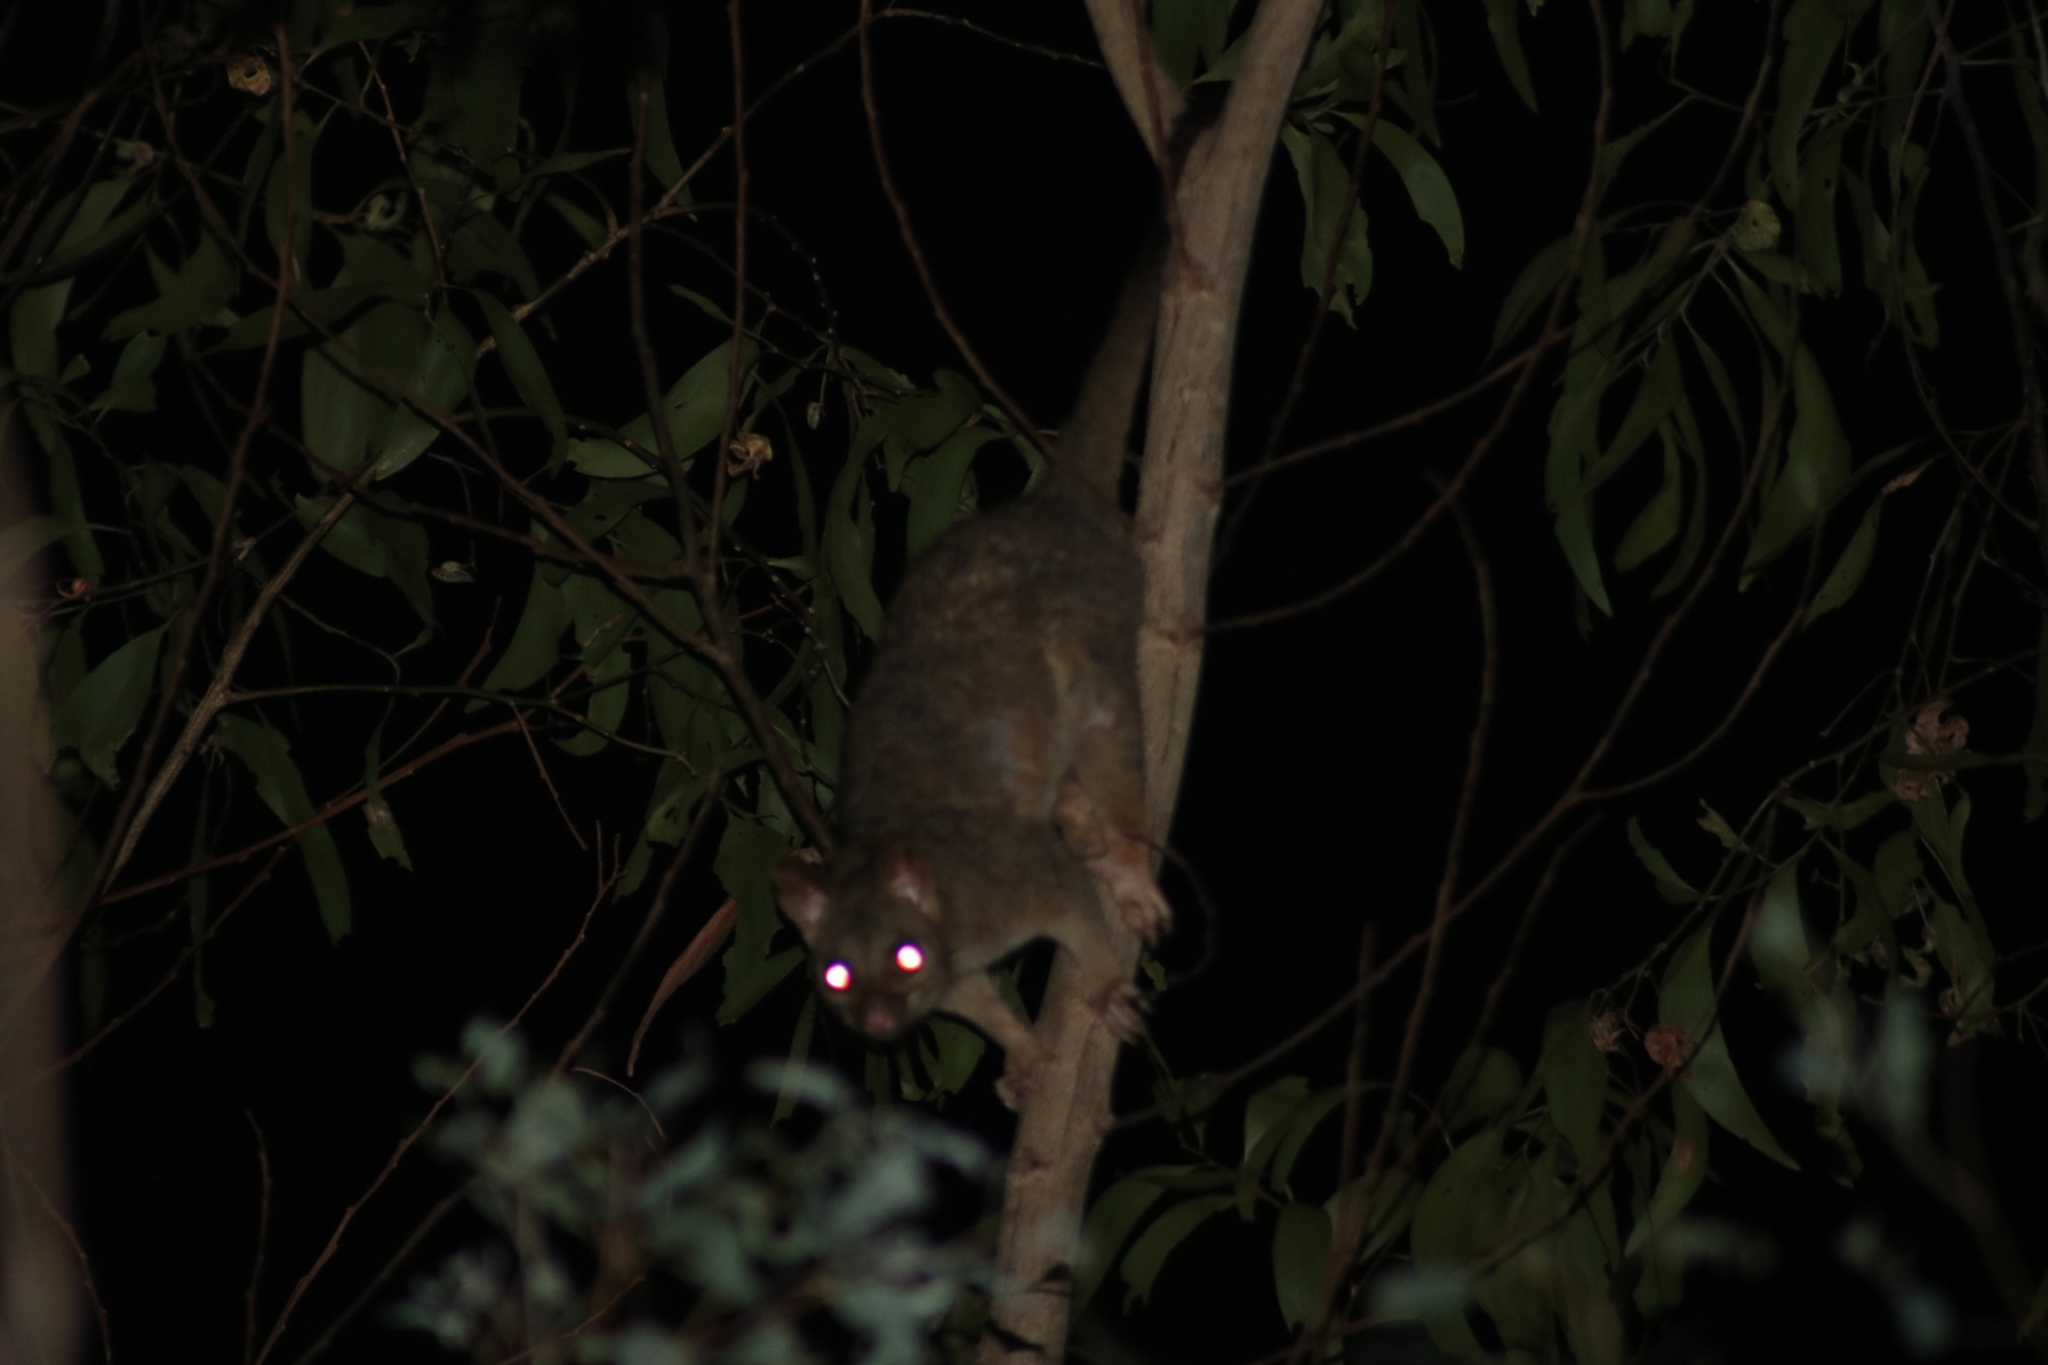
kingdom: Animalia
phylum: Chordata
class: Mammalia
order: Diprotodontia
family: Phalangeridae
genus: Trichosurus
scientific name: Trichosurus vulpecula
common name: Common brushtail
